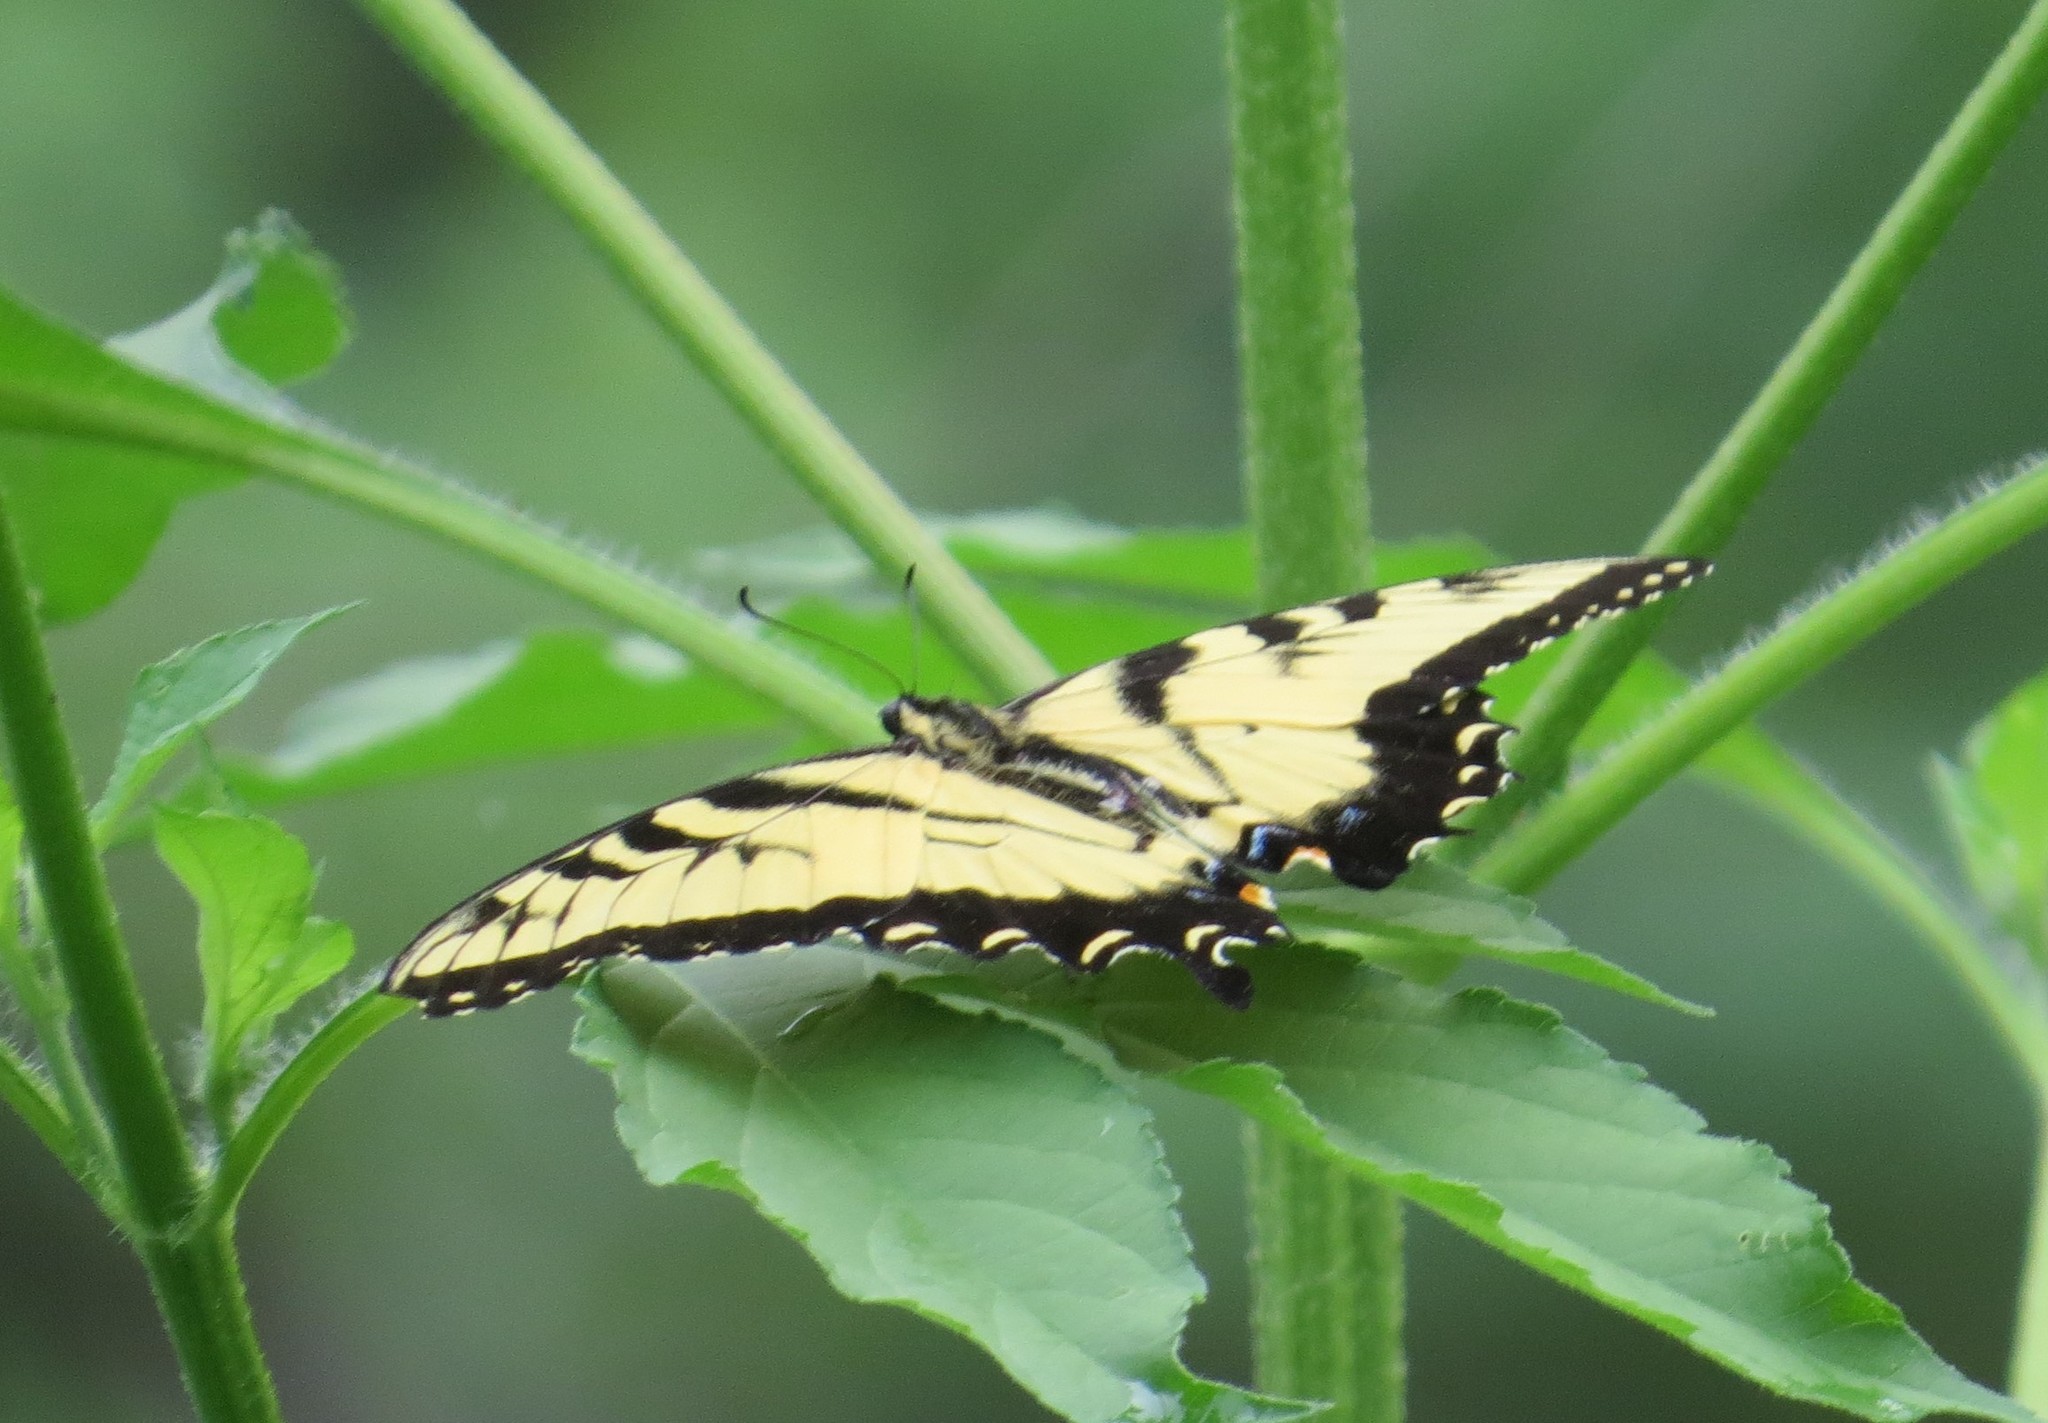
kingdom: Animalia
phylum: Arthropoda
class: Insecta
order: Lepidoptera
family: Papilionidae
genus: Papilio
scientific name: Papilio glaucus
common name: Tiger swallowtail
